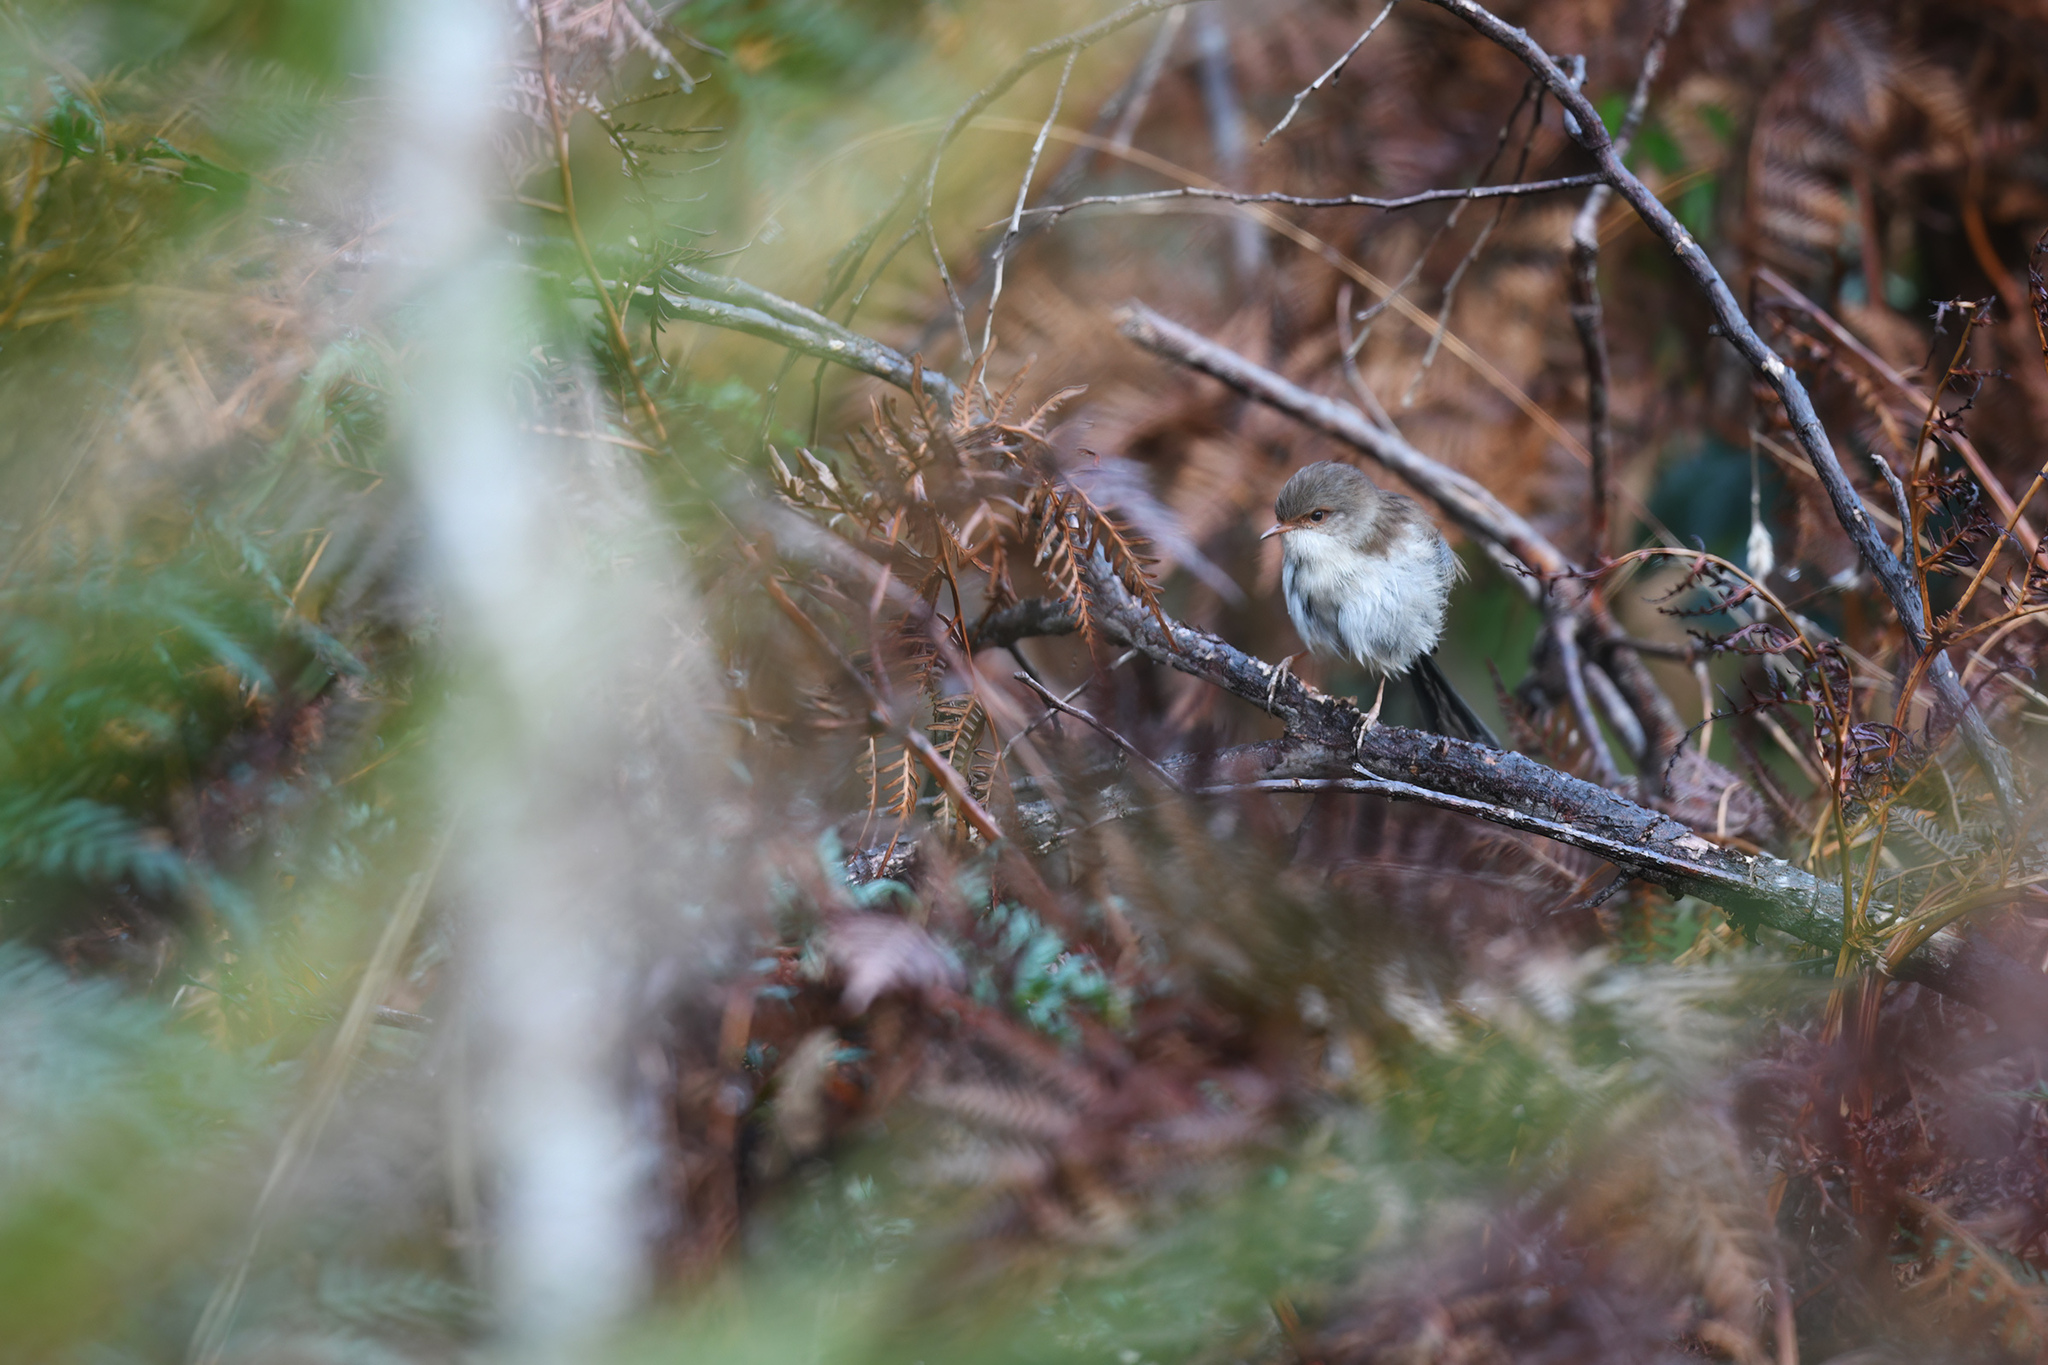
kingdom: Animalia
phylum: Chordata
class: Aves
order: Passeriformes
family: Maluridae
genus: Malurus
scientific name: Malurus cyaneus
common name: Superb fairywren
